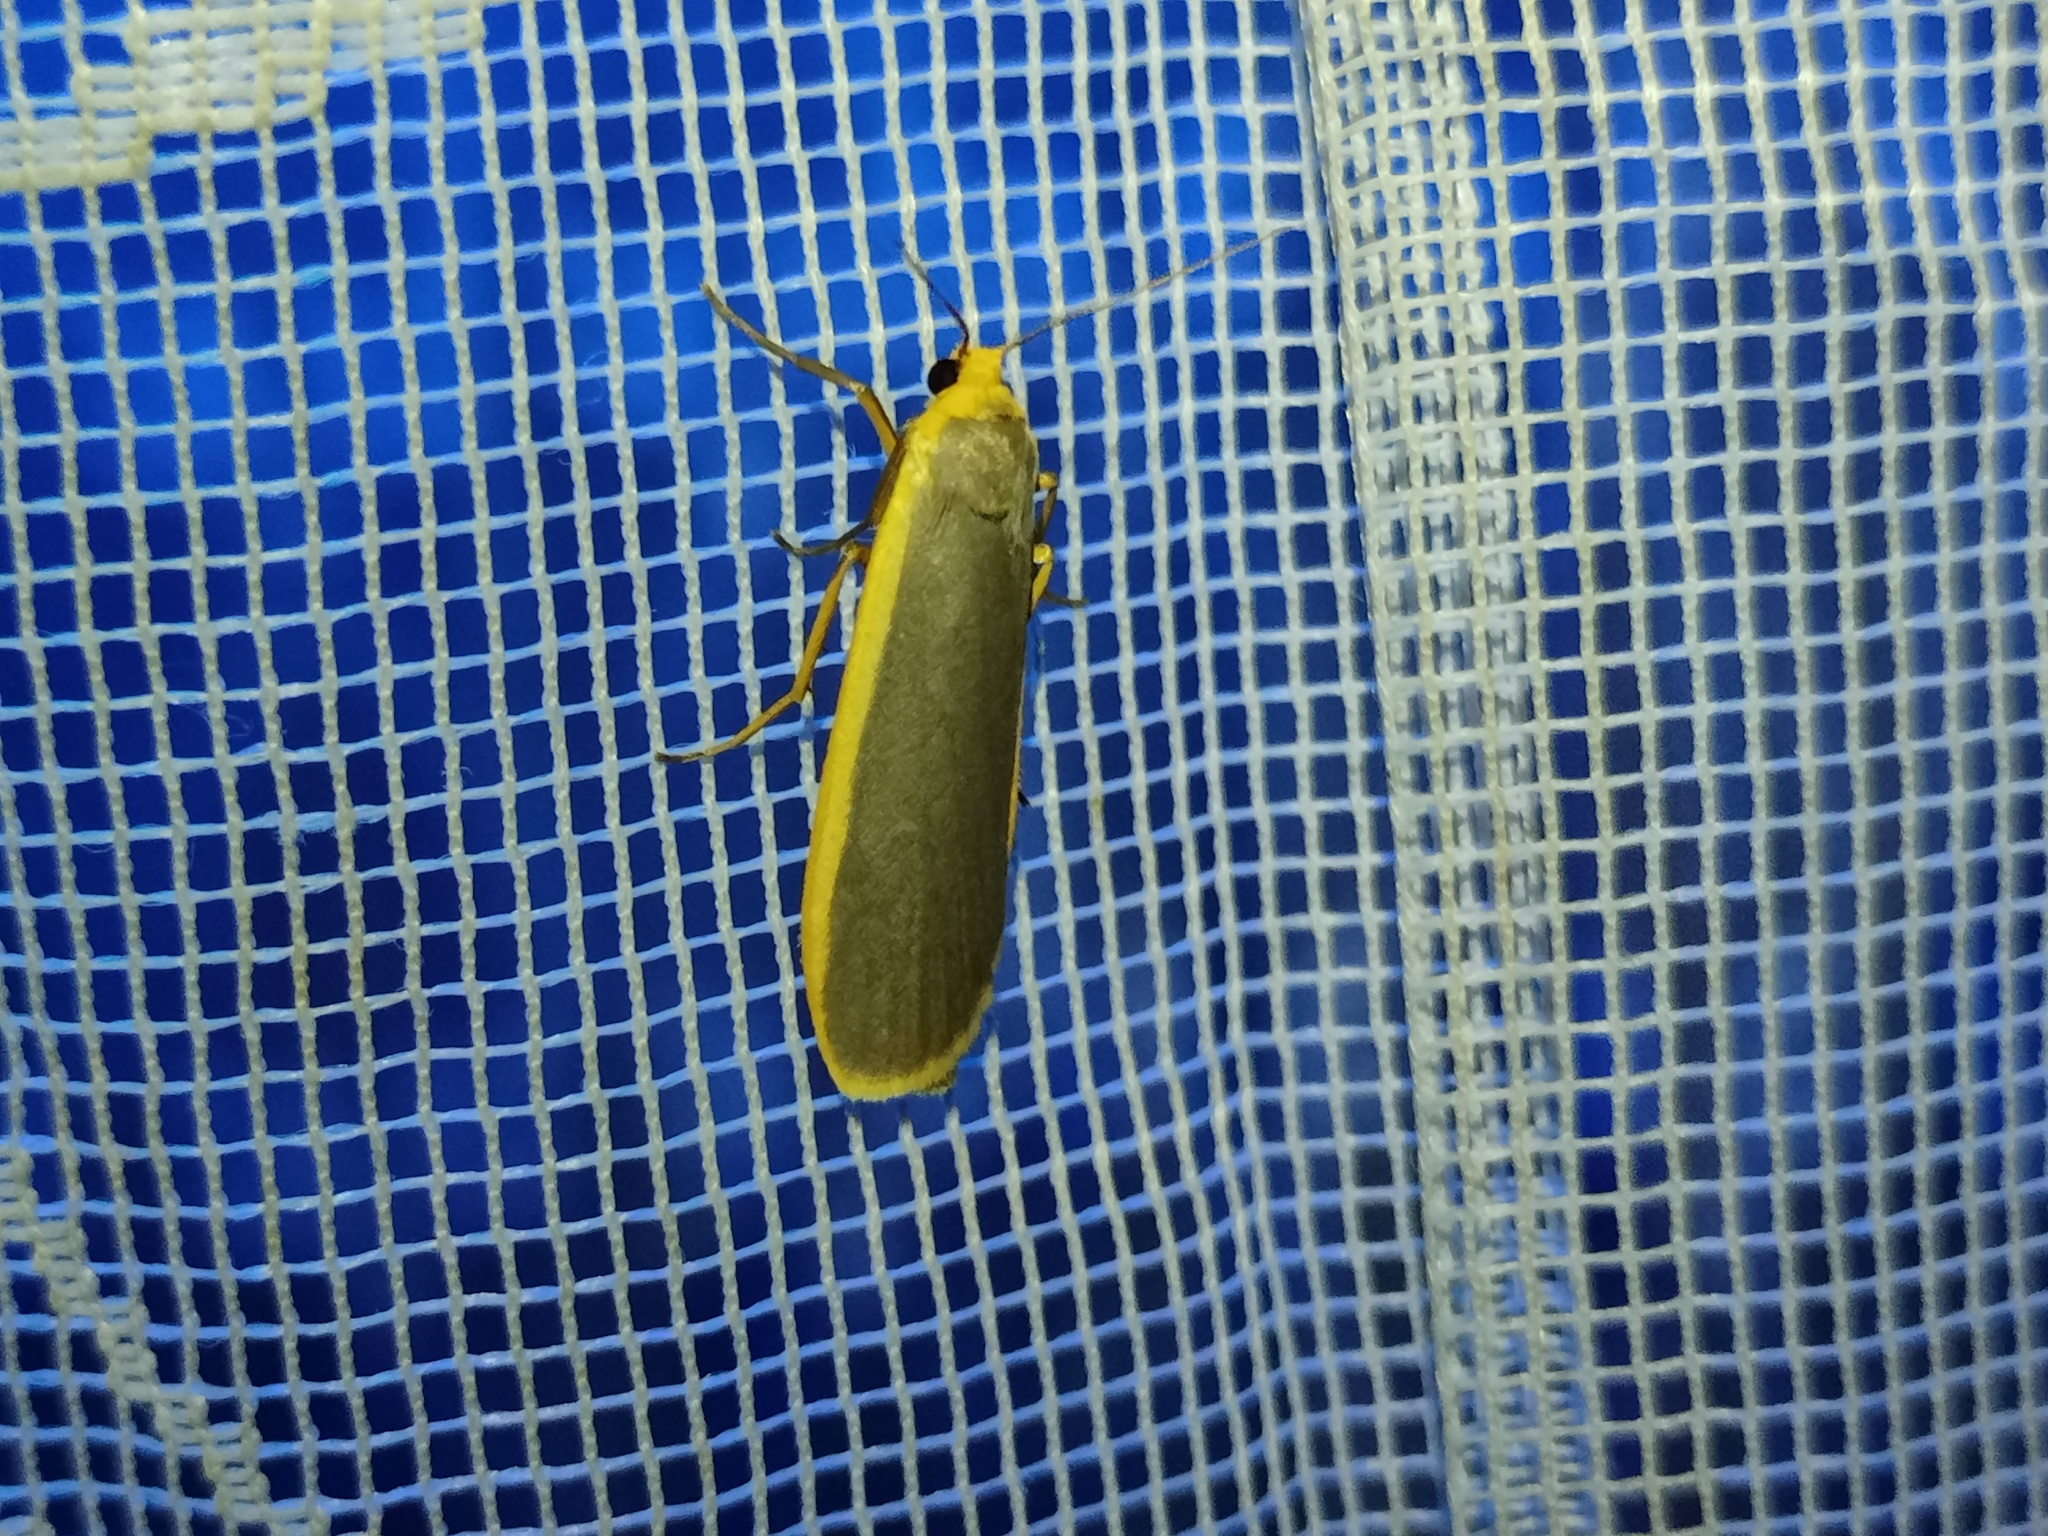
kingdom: Animalia
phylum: Arthropoda
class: Insecta
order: Lepidoptera
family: Erebidae
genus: Nyea
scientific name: Nyea lurideola
